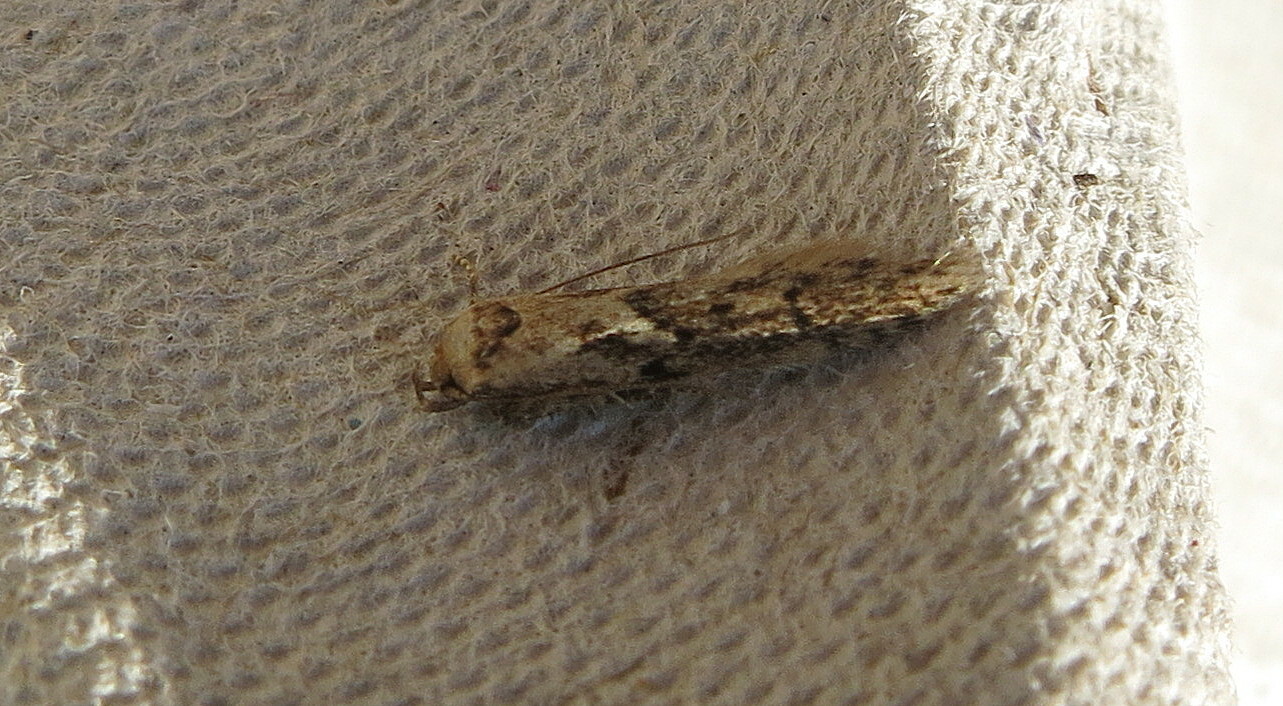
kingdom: Animalia
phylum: Arthropoda
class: Insecta
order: Lepidoptera
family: Blastobasidae
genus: Blastobasis
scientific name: Blastobasis adustella
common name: Dingy dowd
